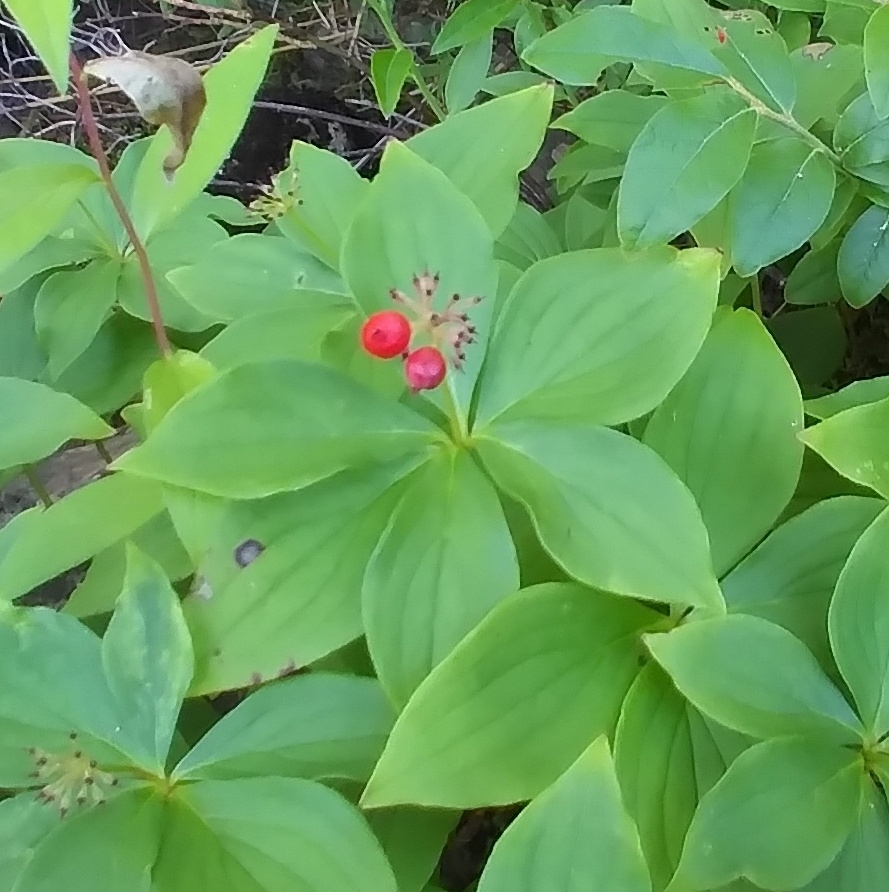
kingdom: Plantae
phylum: Tracheophyta
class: Magnoliopsida
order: Cornales
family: Cornaceae
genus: Cornus
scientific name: Cornus canadensis
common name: Creeping dogwood
